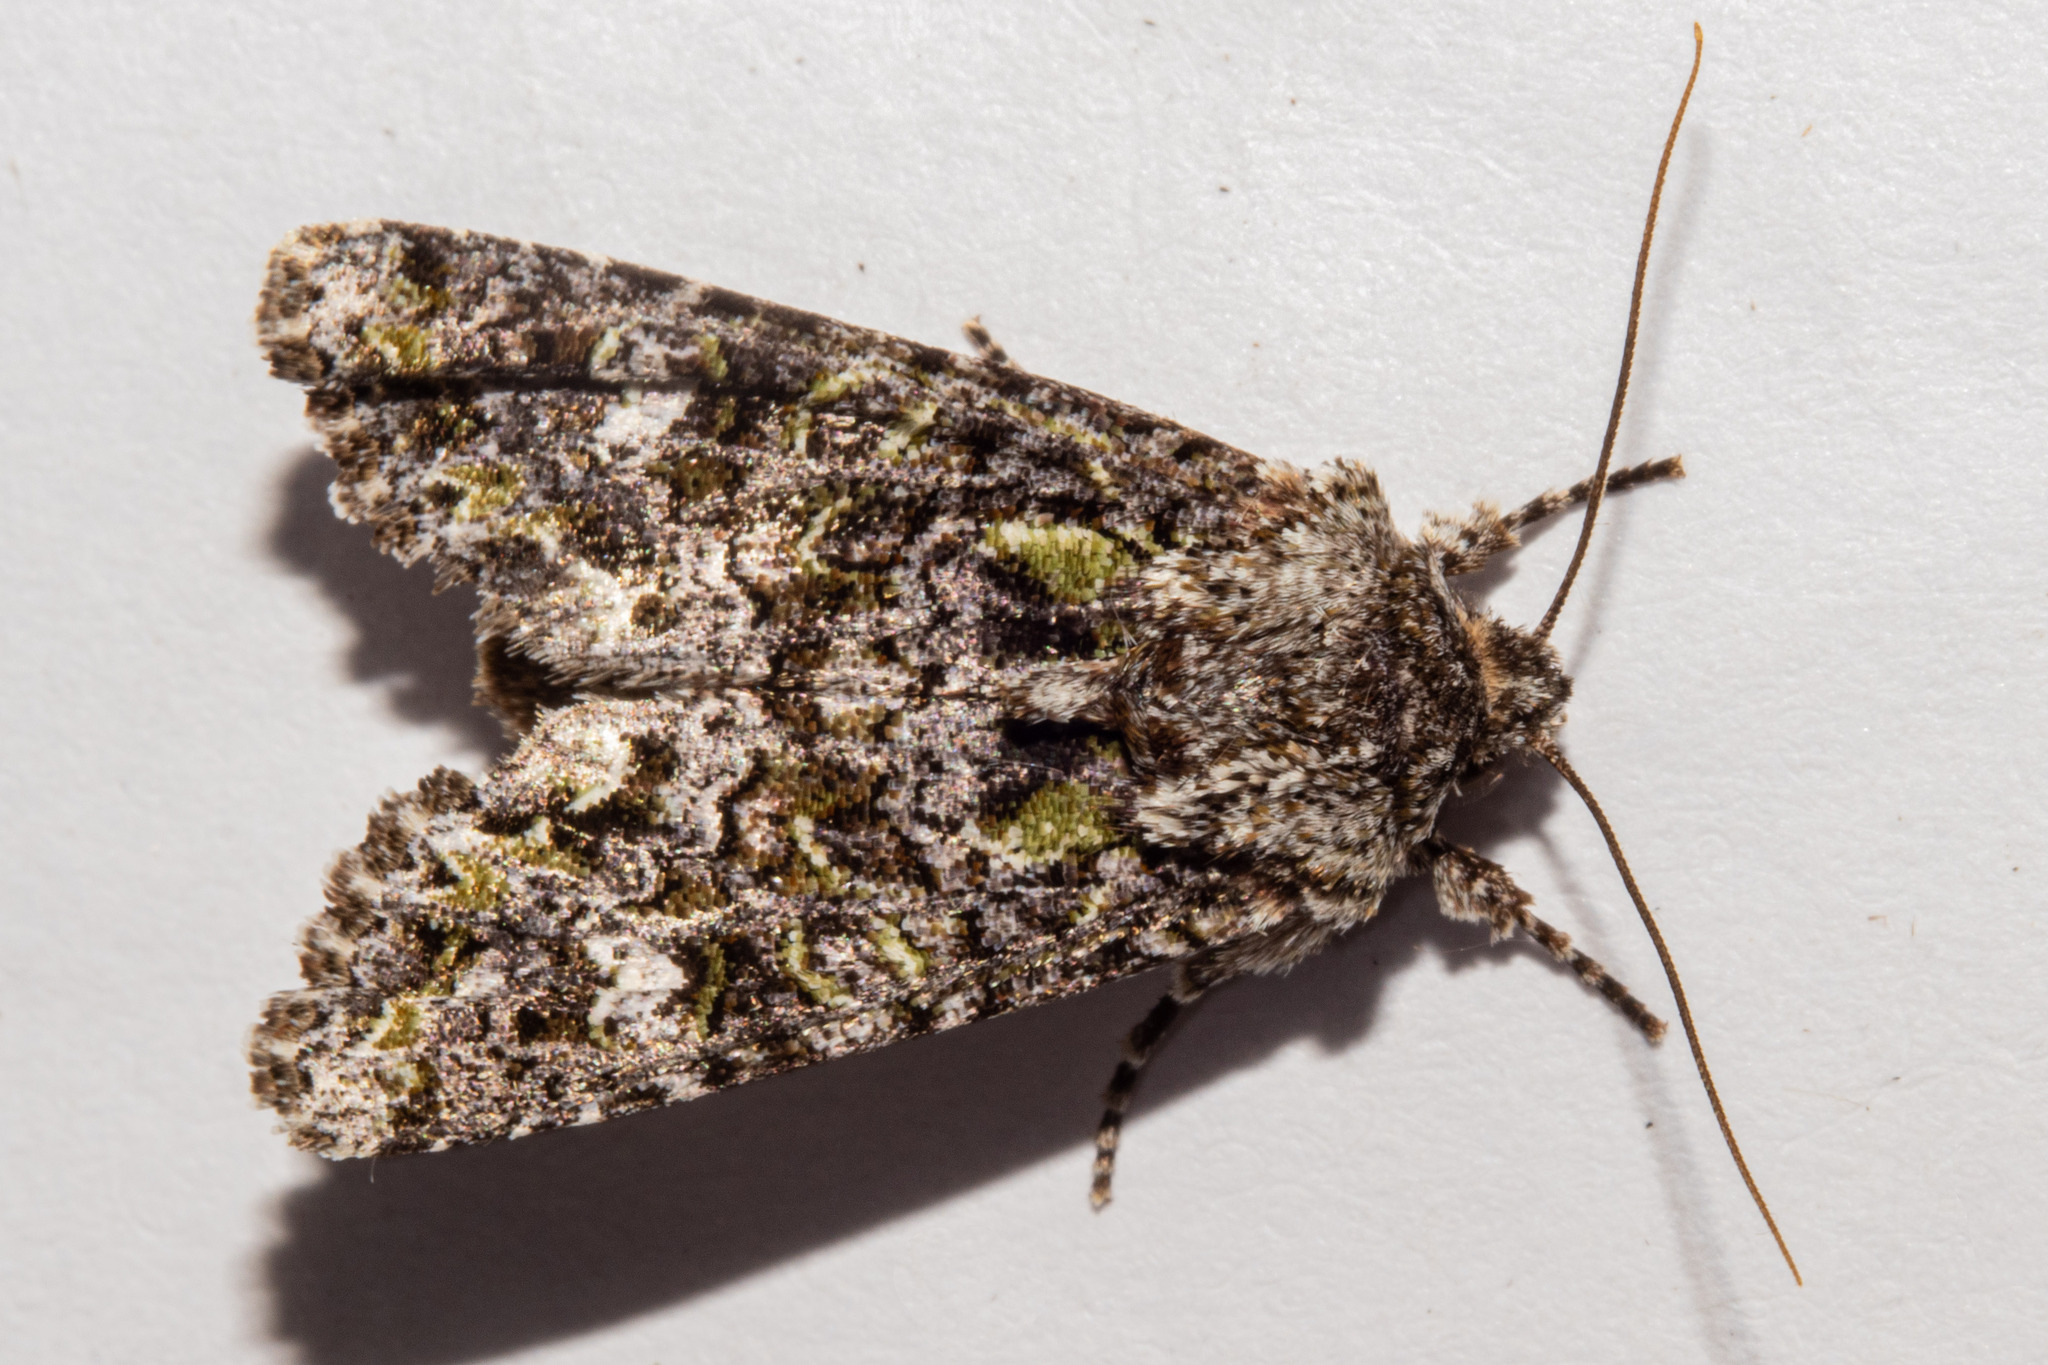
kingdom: Animalia
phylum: Arthropoda
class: Insecta
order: Lepidoptera
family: Noctuidae
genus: Ichneutica
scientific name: Ichneutica pelanodes
